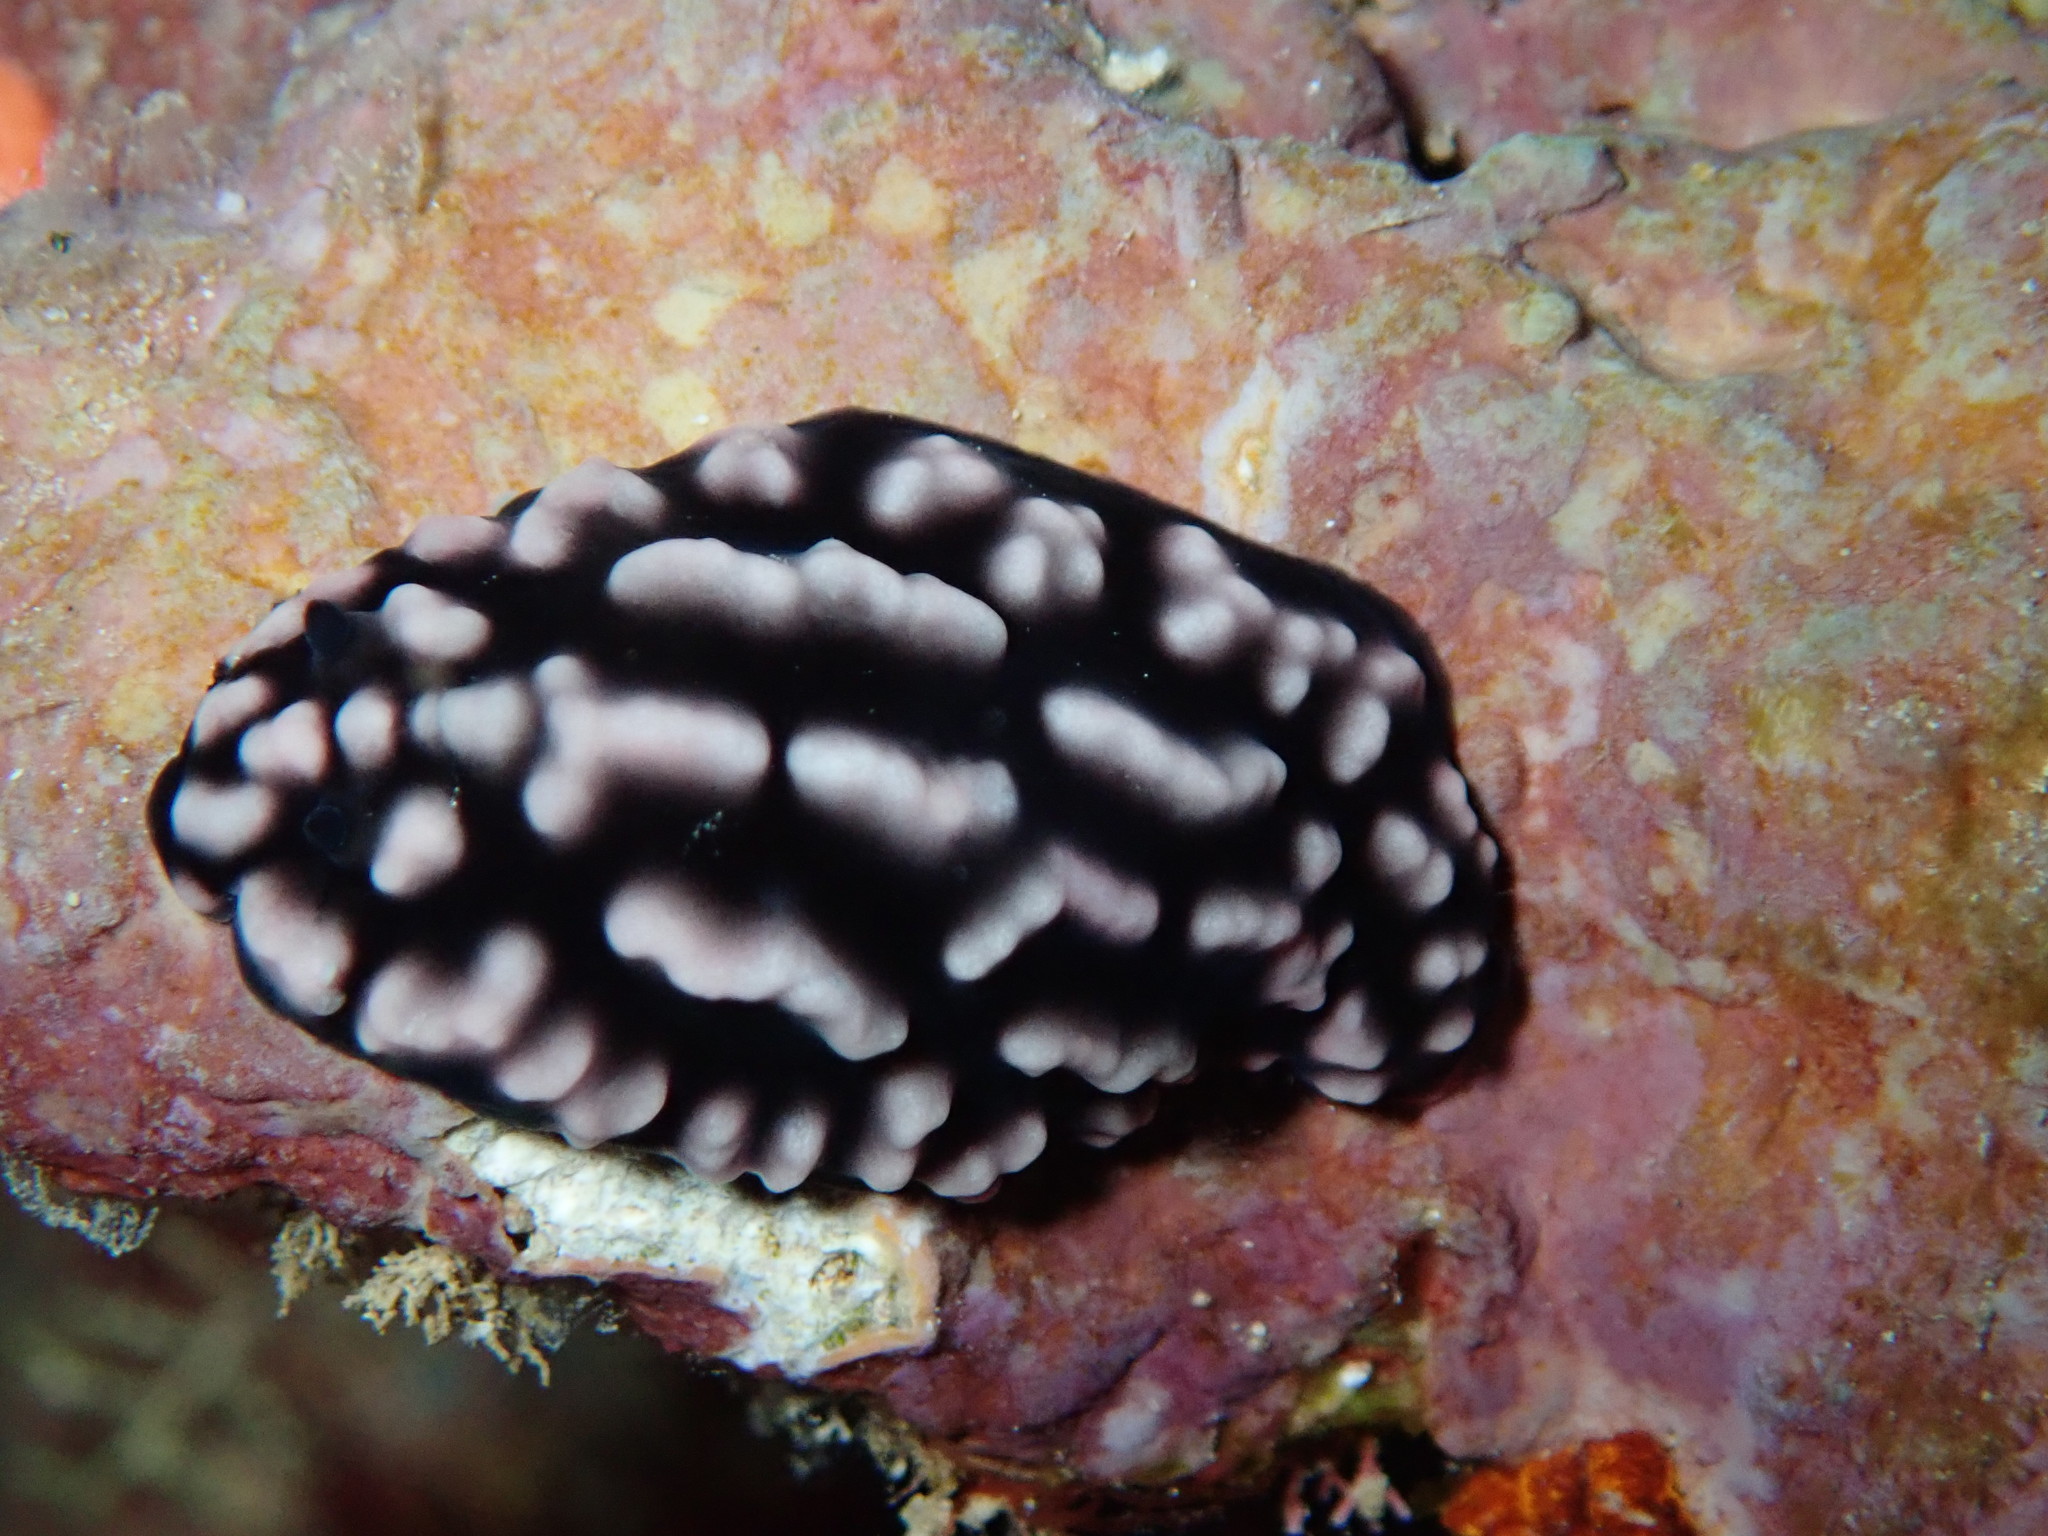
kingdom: Animalia
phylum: Mollusca
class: Gastropoda
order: Nudibranchia
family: Phyllidiidae
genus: Phyllidiella
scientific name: Phyllidiella pustulosa
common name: Pustular phyllidia
